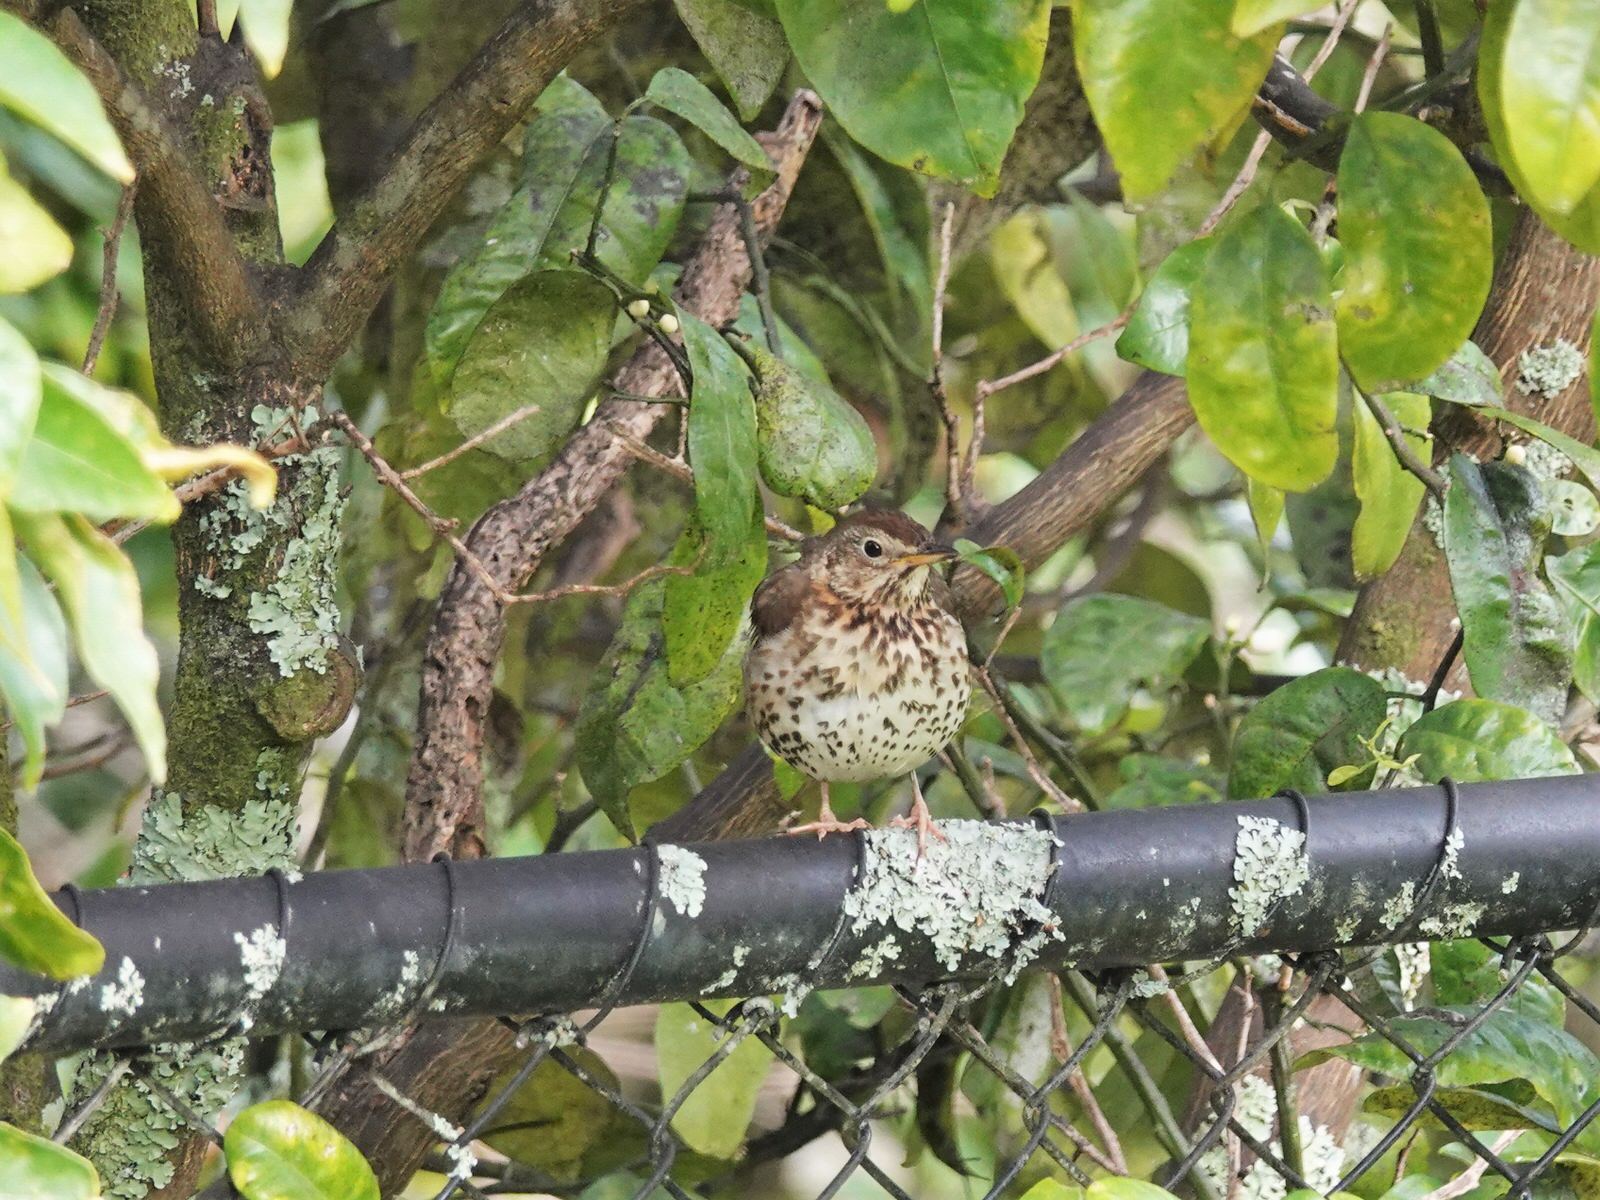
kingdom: Animalia
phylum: Chordata
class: Aves
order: Passeriformes
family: Turdidae
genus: Turdus
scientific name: Turdus philomelos
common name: Song thrush
